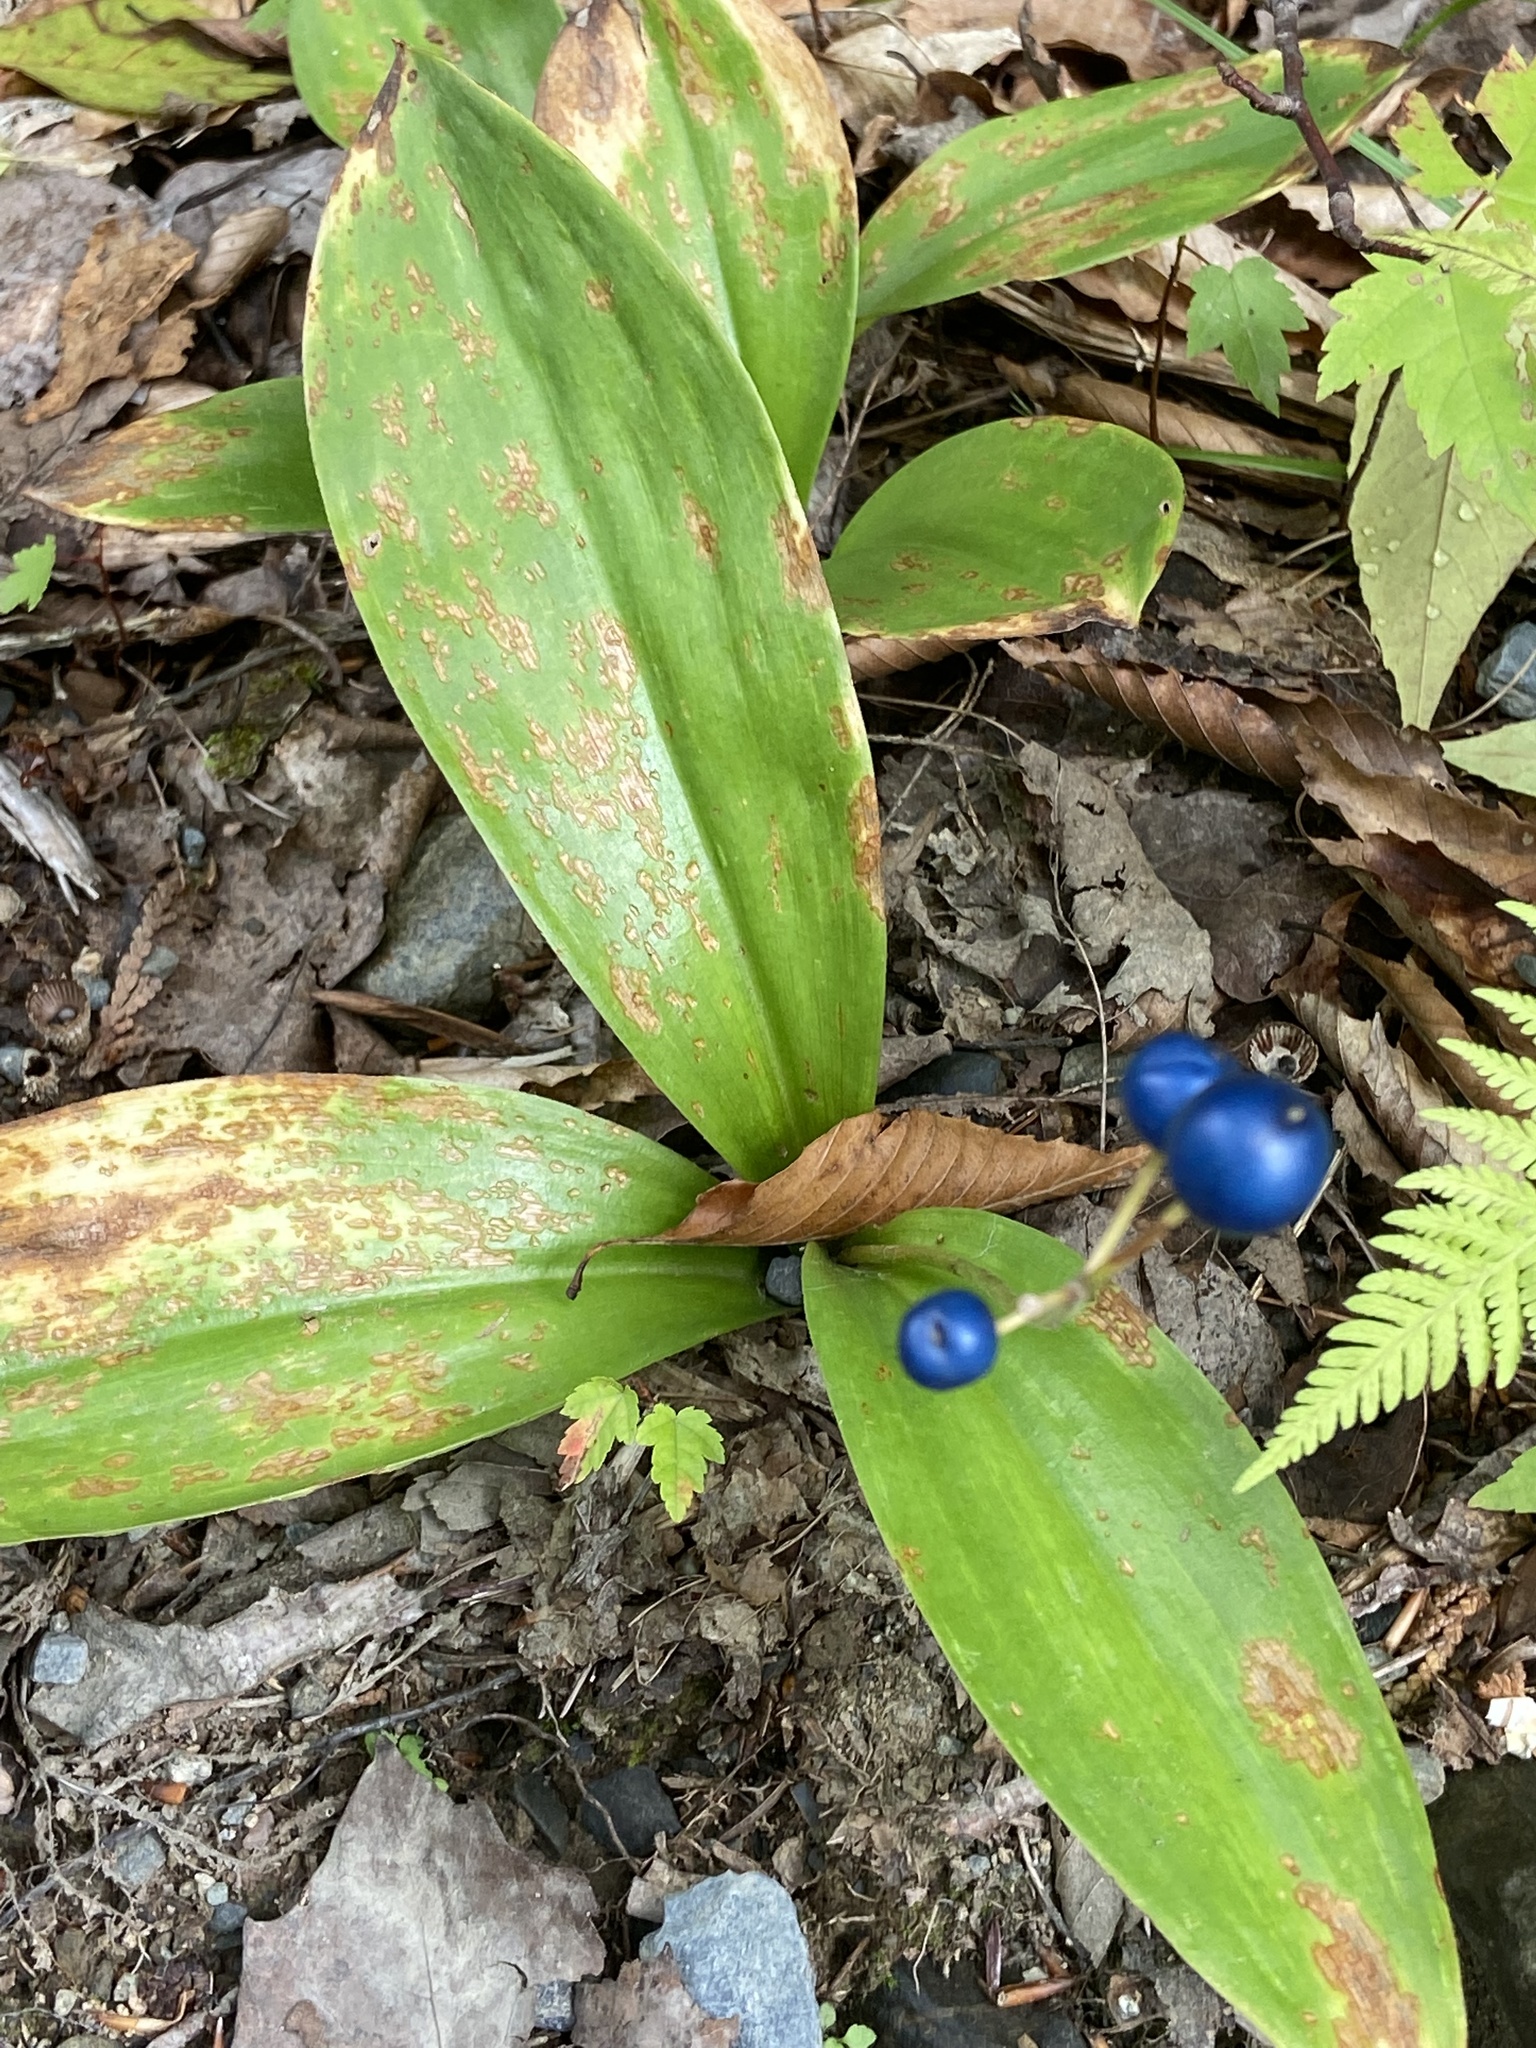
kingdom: Plantae
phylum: Tracheophyta
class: Liliopsida
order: Liliales
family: Liliaceae
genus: Clintonia
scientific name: Clintonia borealis
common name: Yellow clintonia
